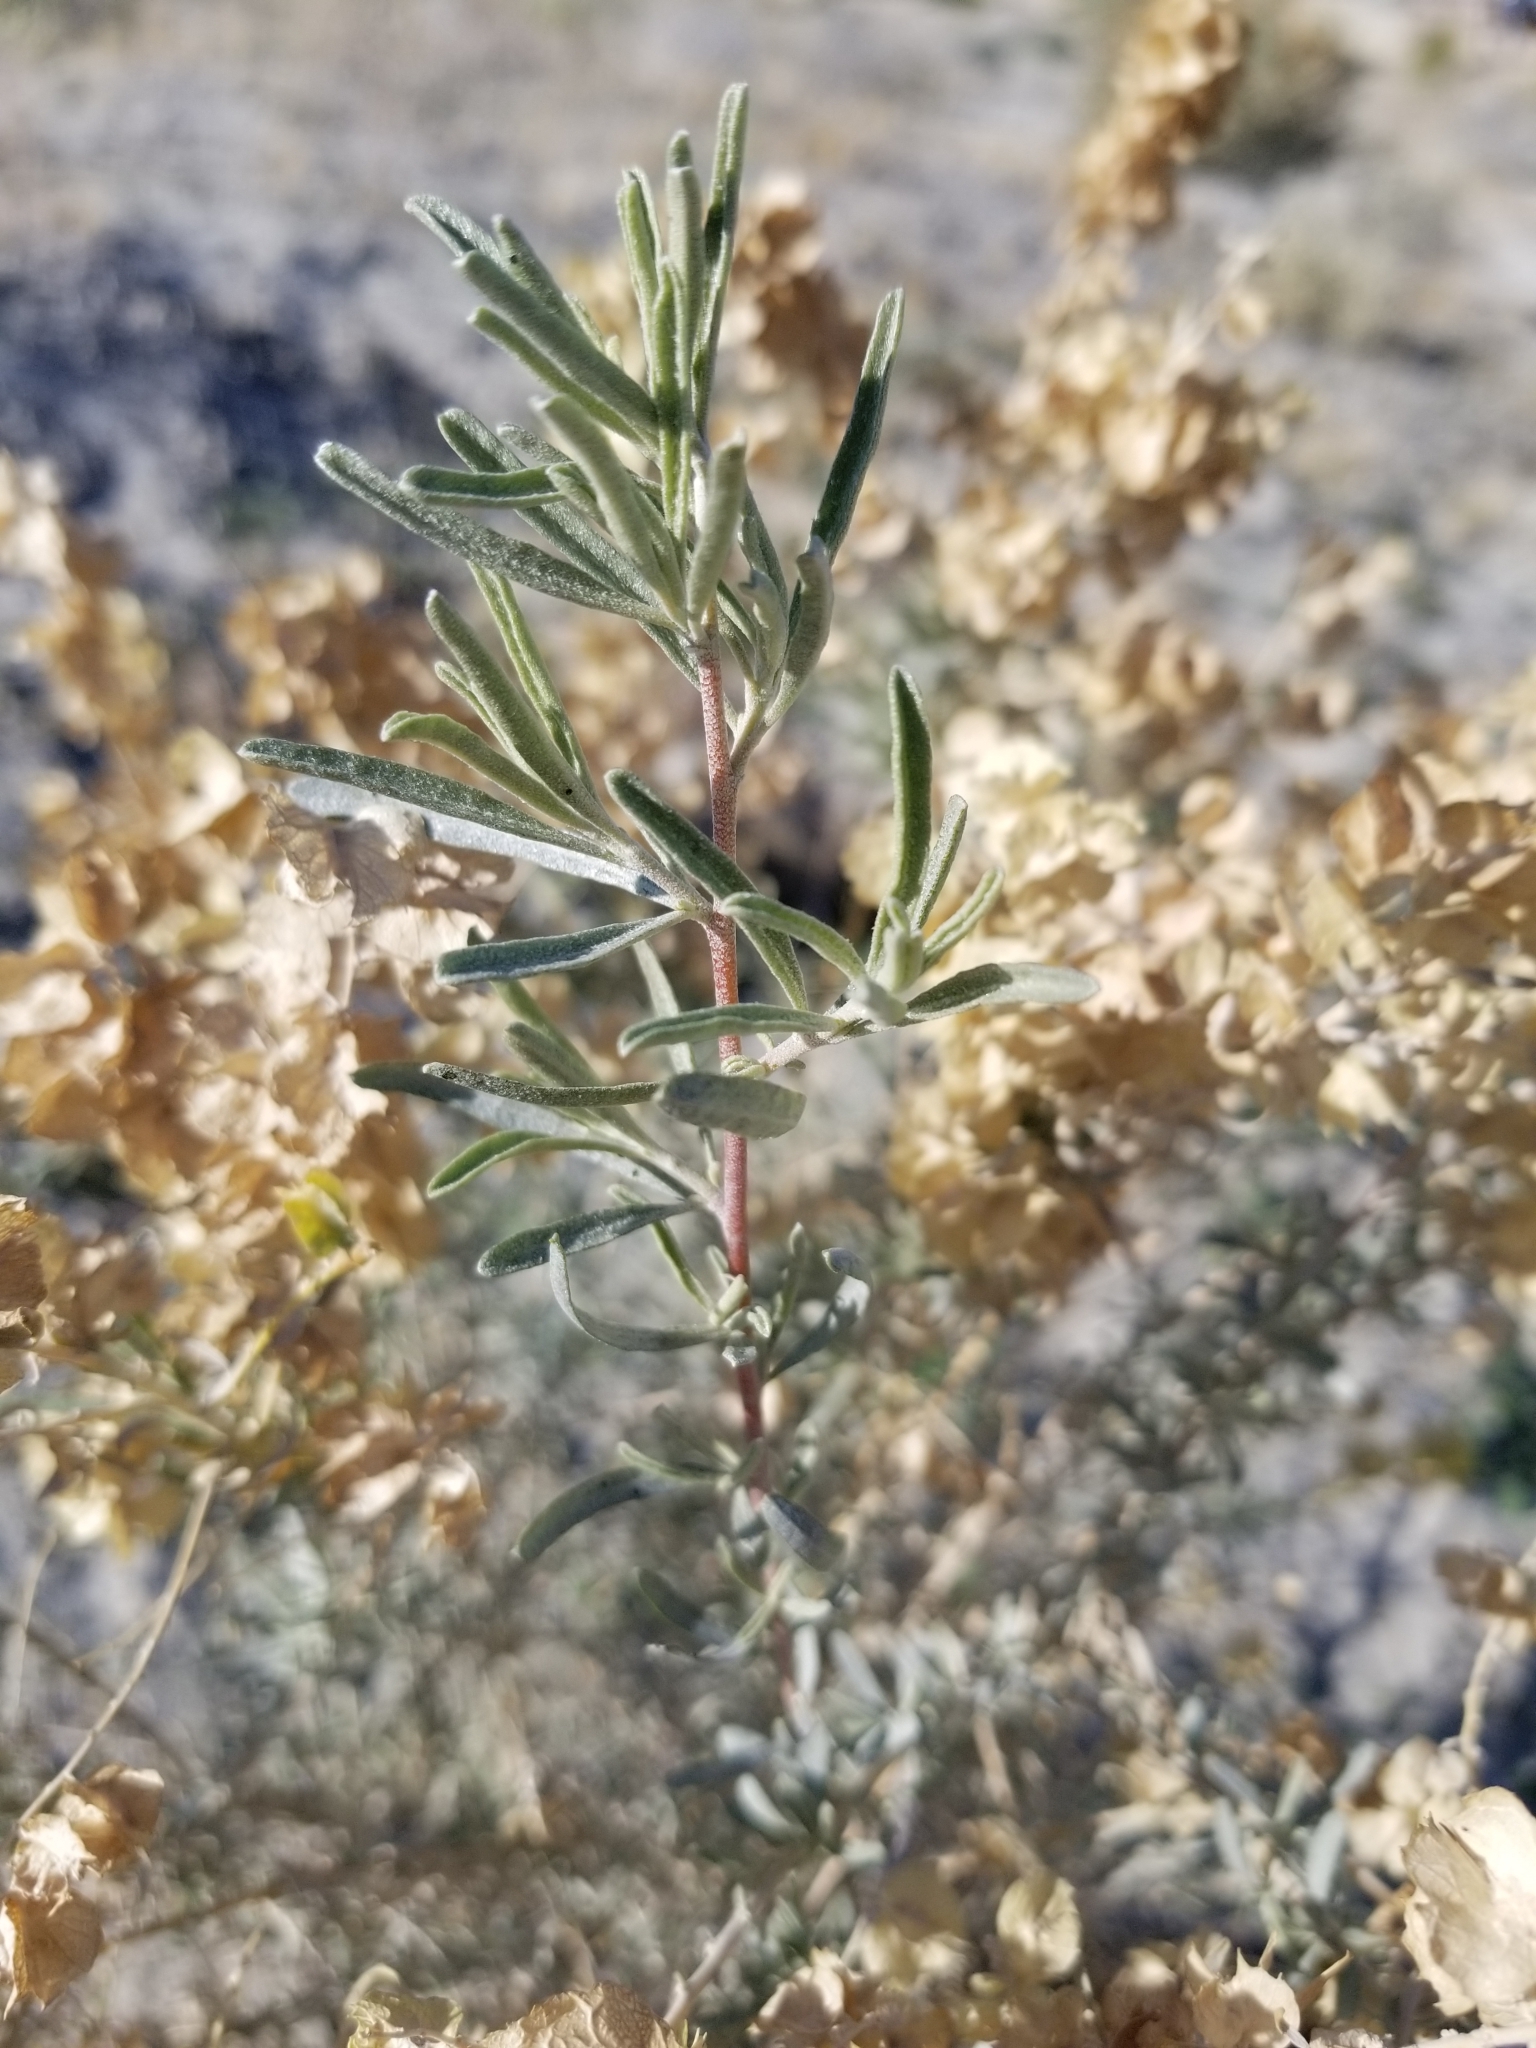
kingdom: Plantae
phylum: Tracheophyta
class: Magnoliopsida
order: Caryophyllales
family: Amaranthaceae
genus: Atriplex
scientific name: Atriplex canescens
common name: Four-wing saltbush
